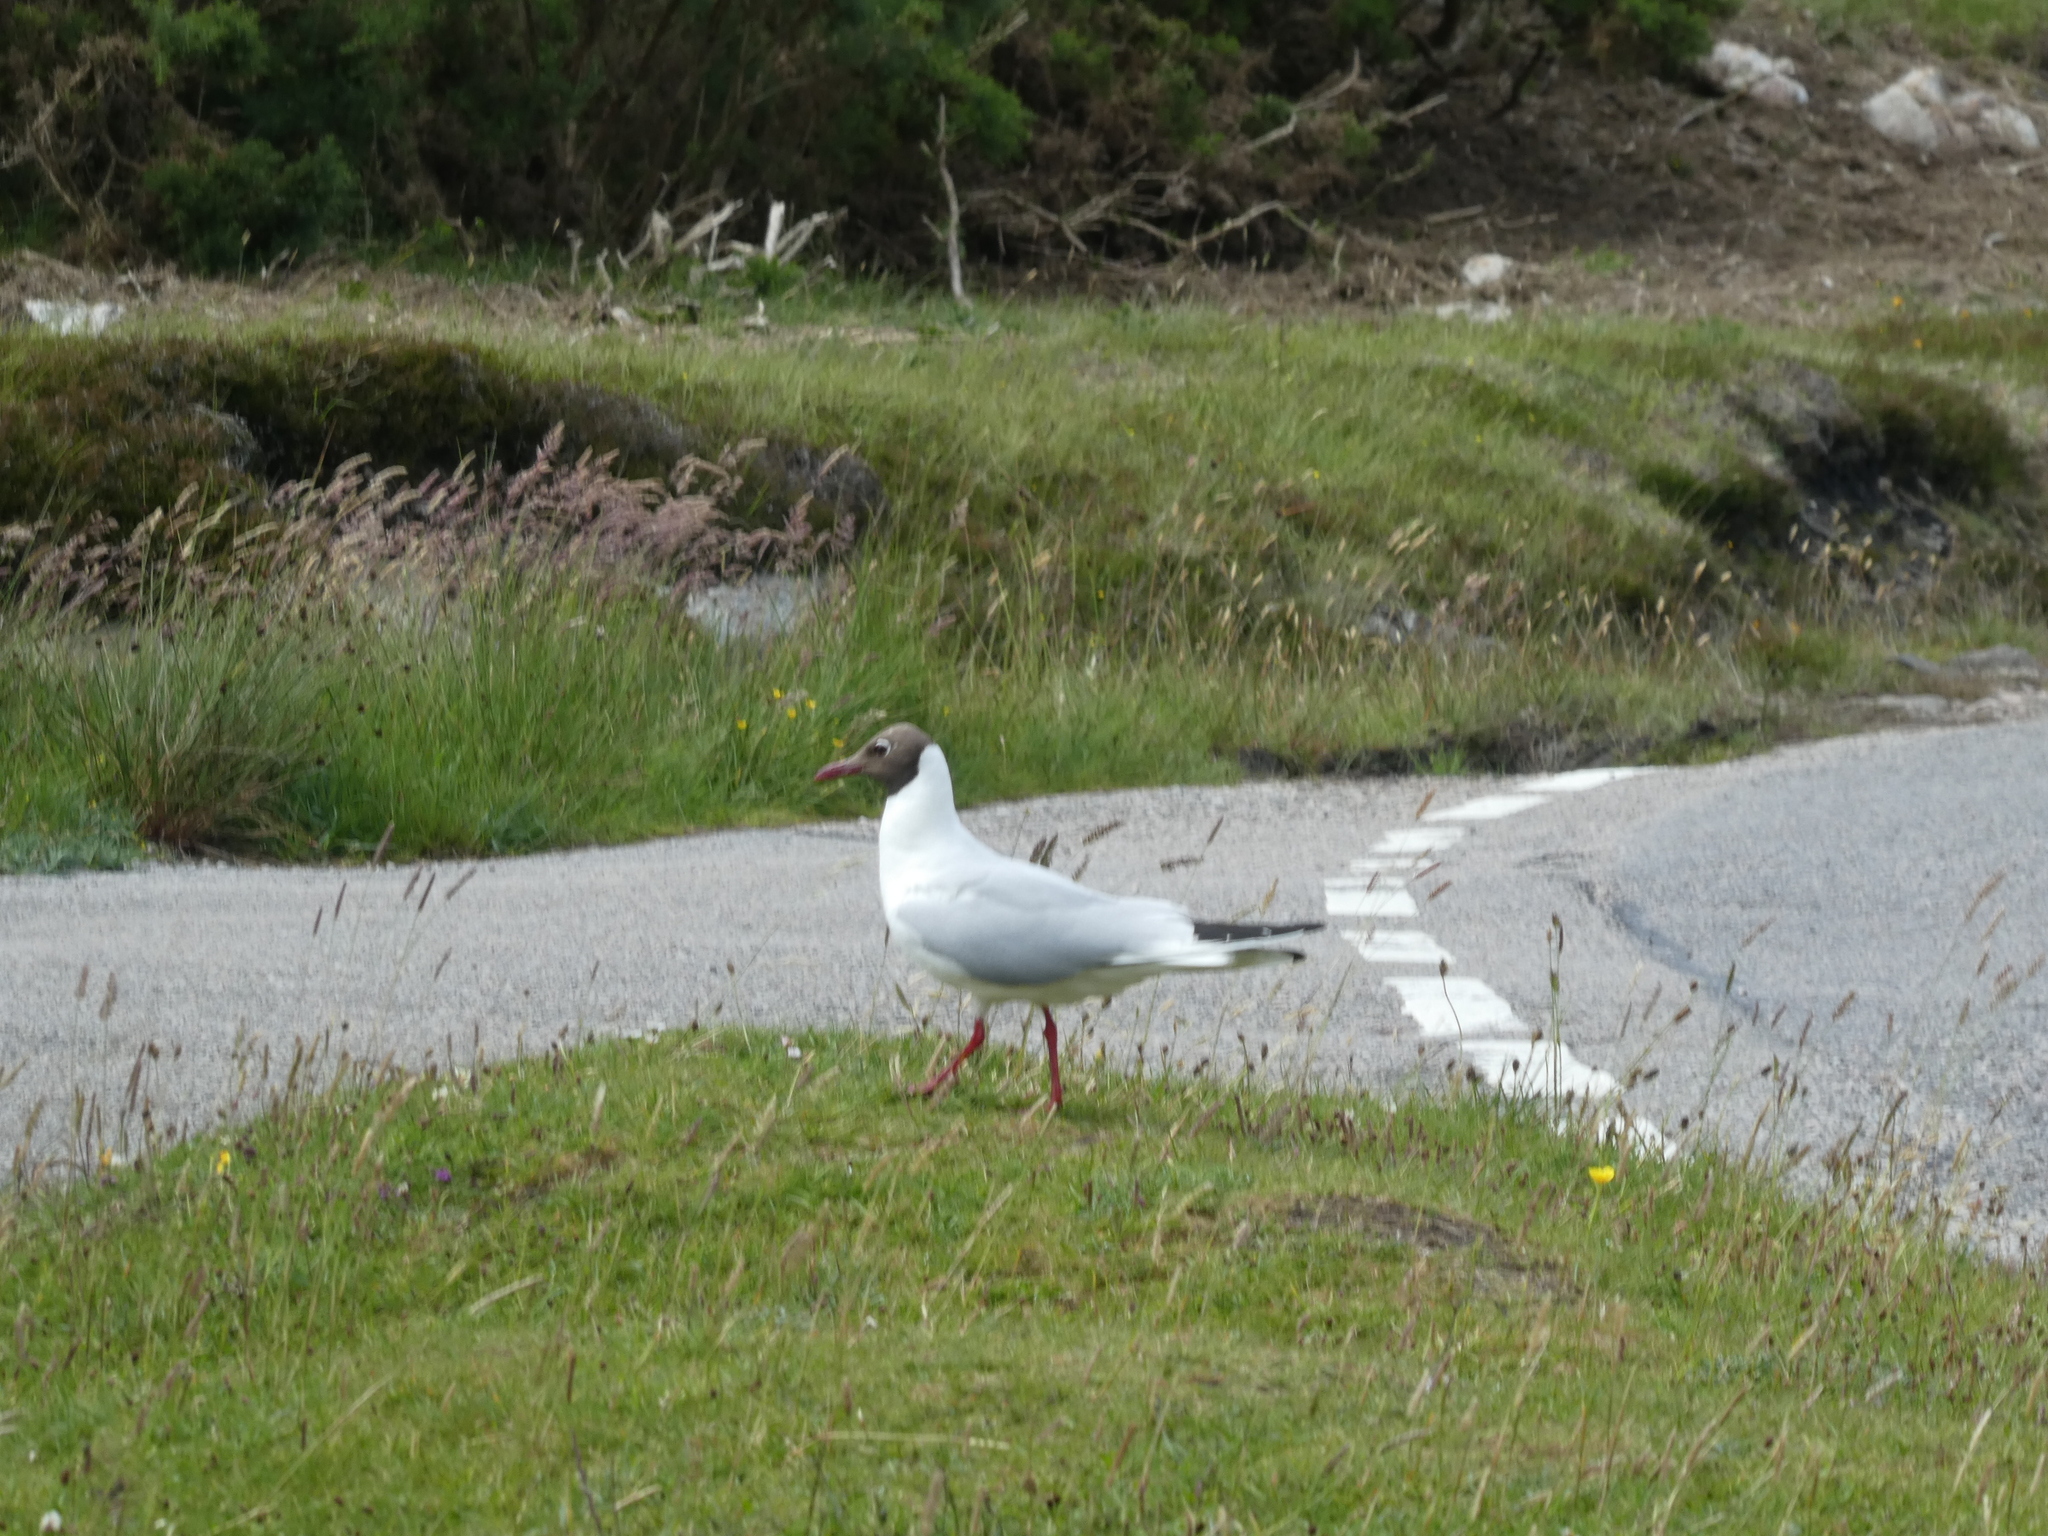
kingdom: Animalia
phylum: Chordata
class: Aves
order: Charadriiformes
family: Laridae
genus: Chroicocephalus
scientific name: Chroicocephalus ridibundus
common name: Black-headed gull
